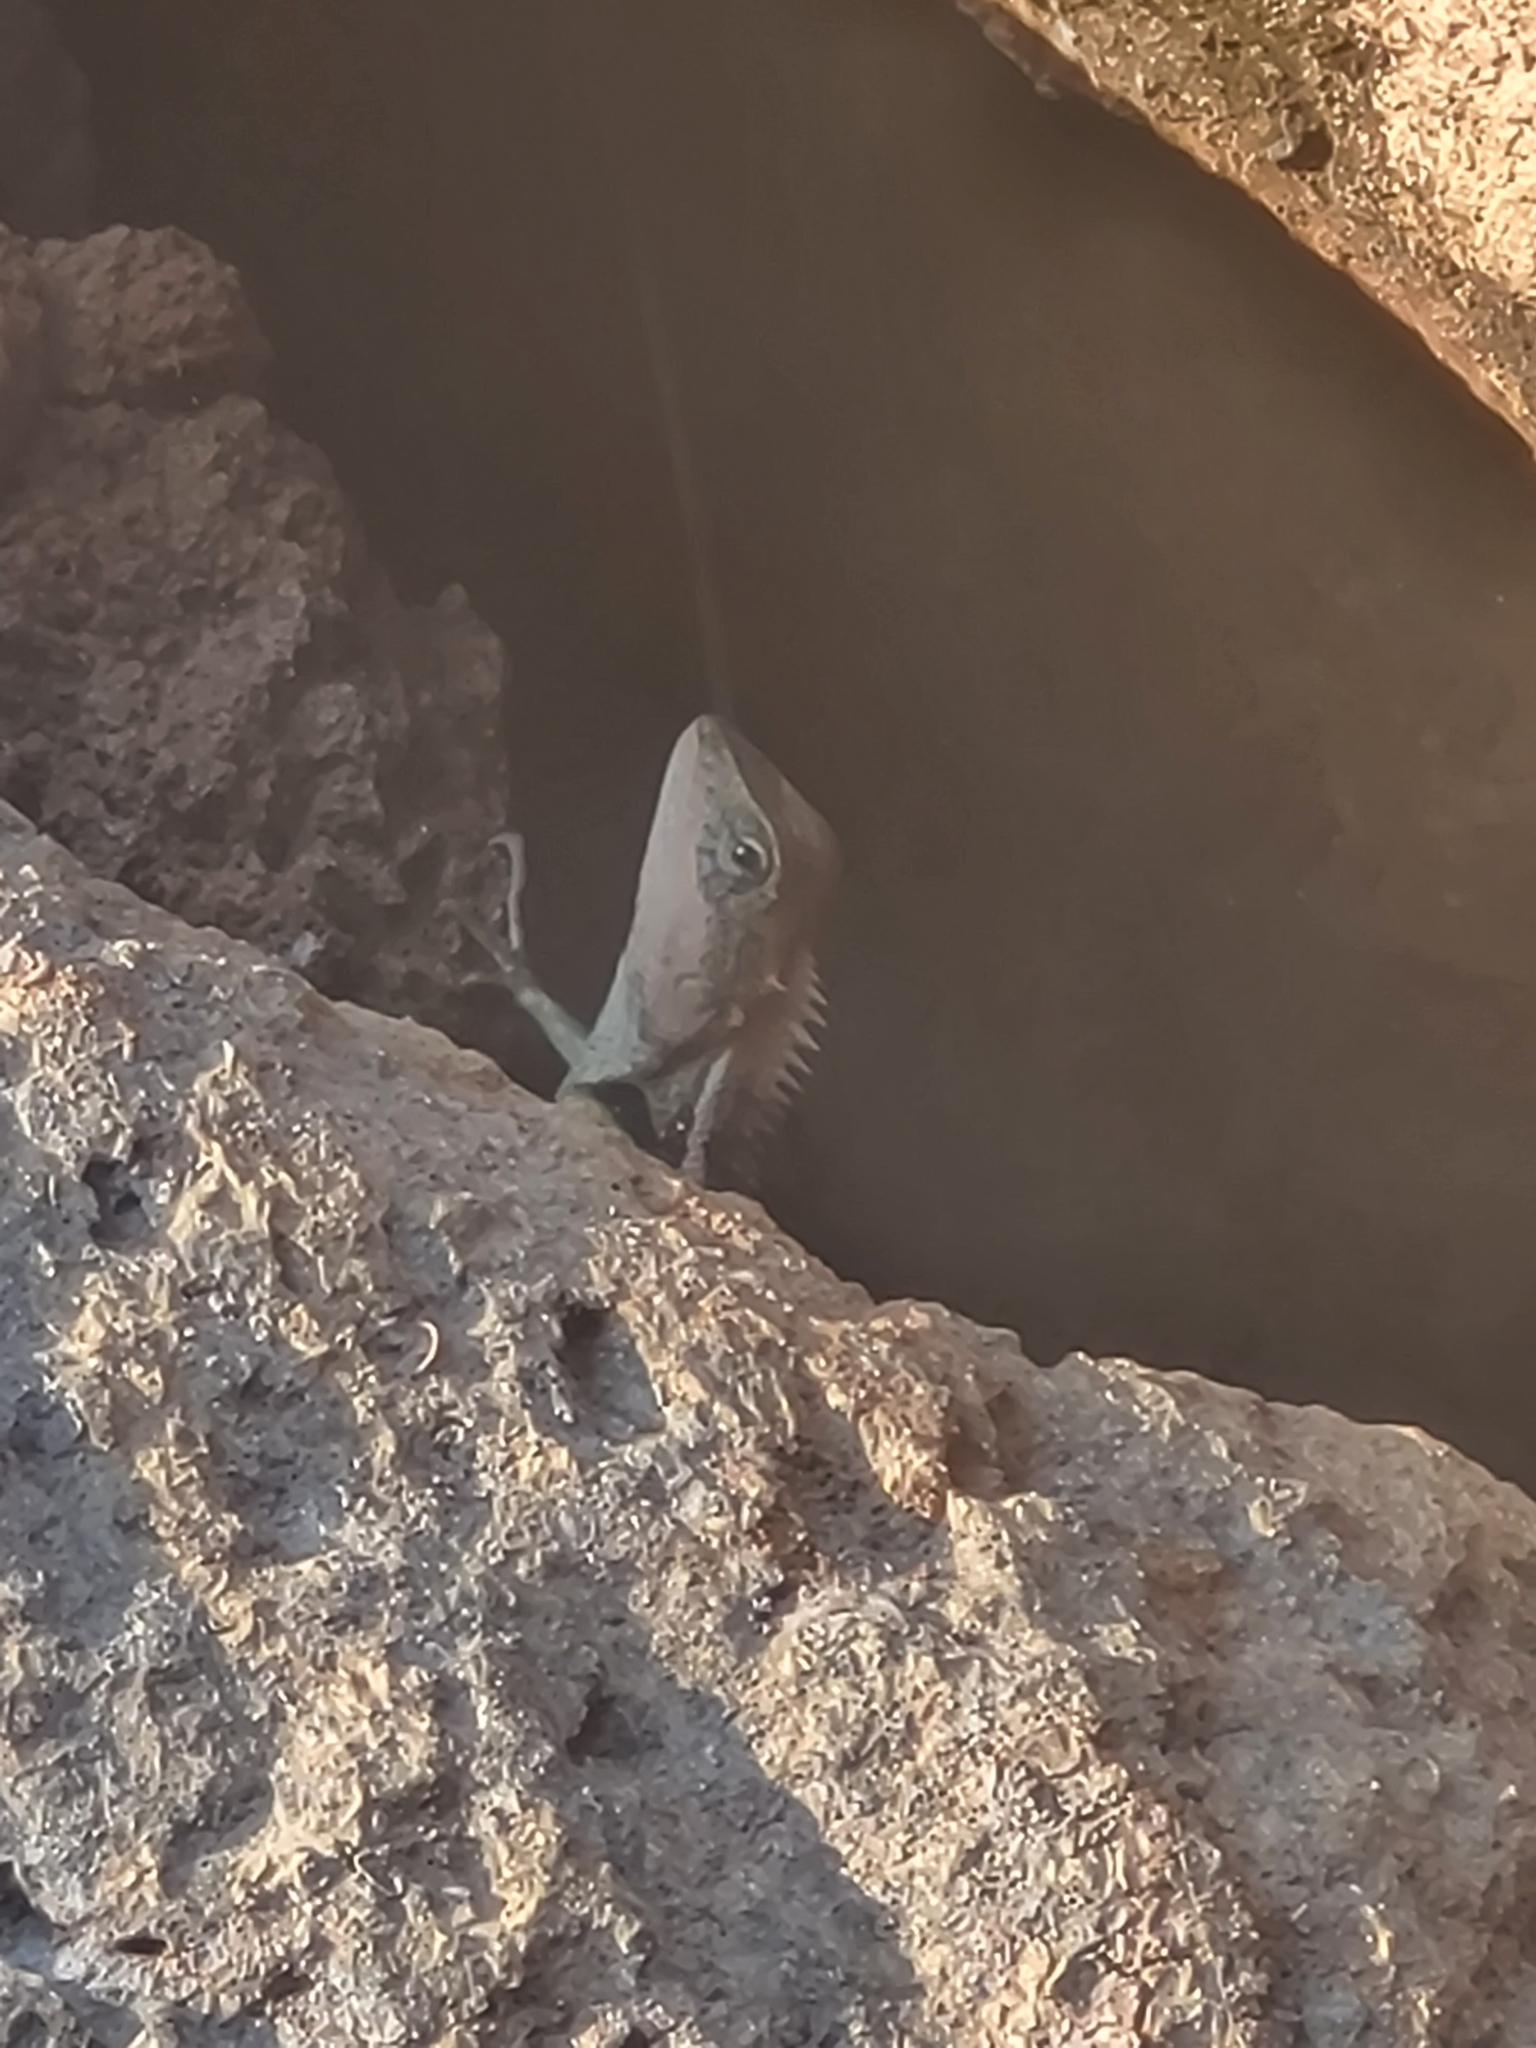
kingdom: Animalia
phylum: Chordata
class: Squamata
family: Agamidae
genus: Calotes
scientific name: Calotes emma
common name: Thailand bloodsucker
